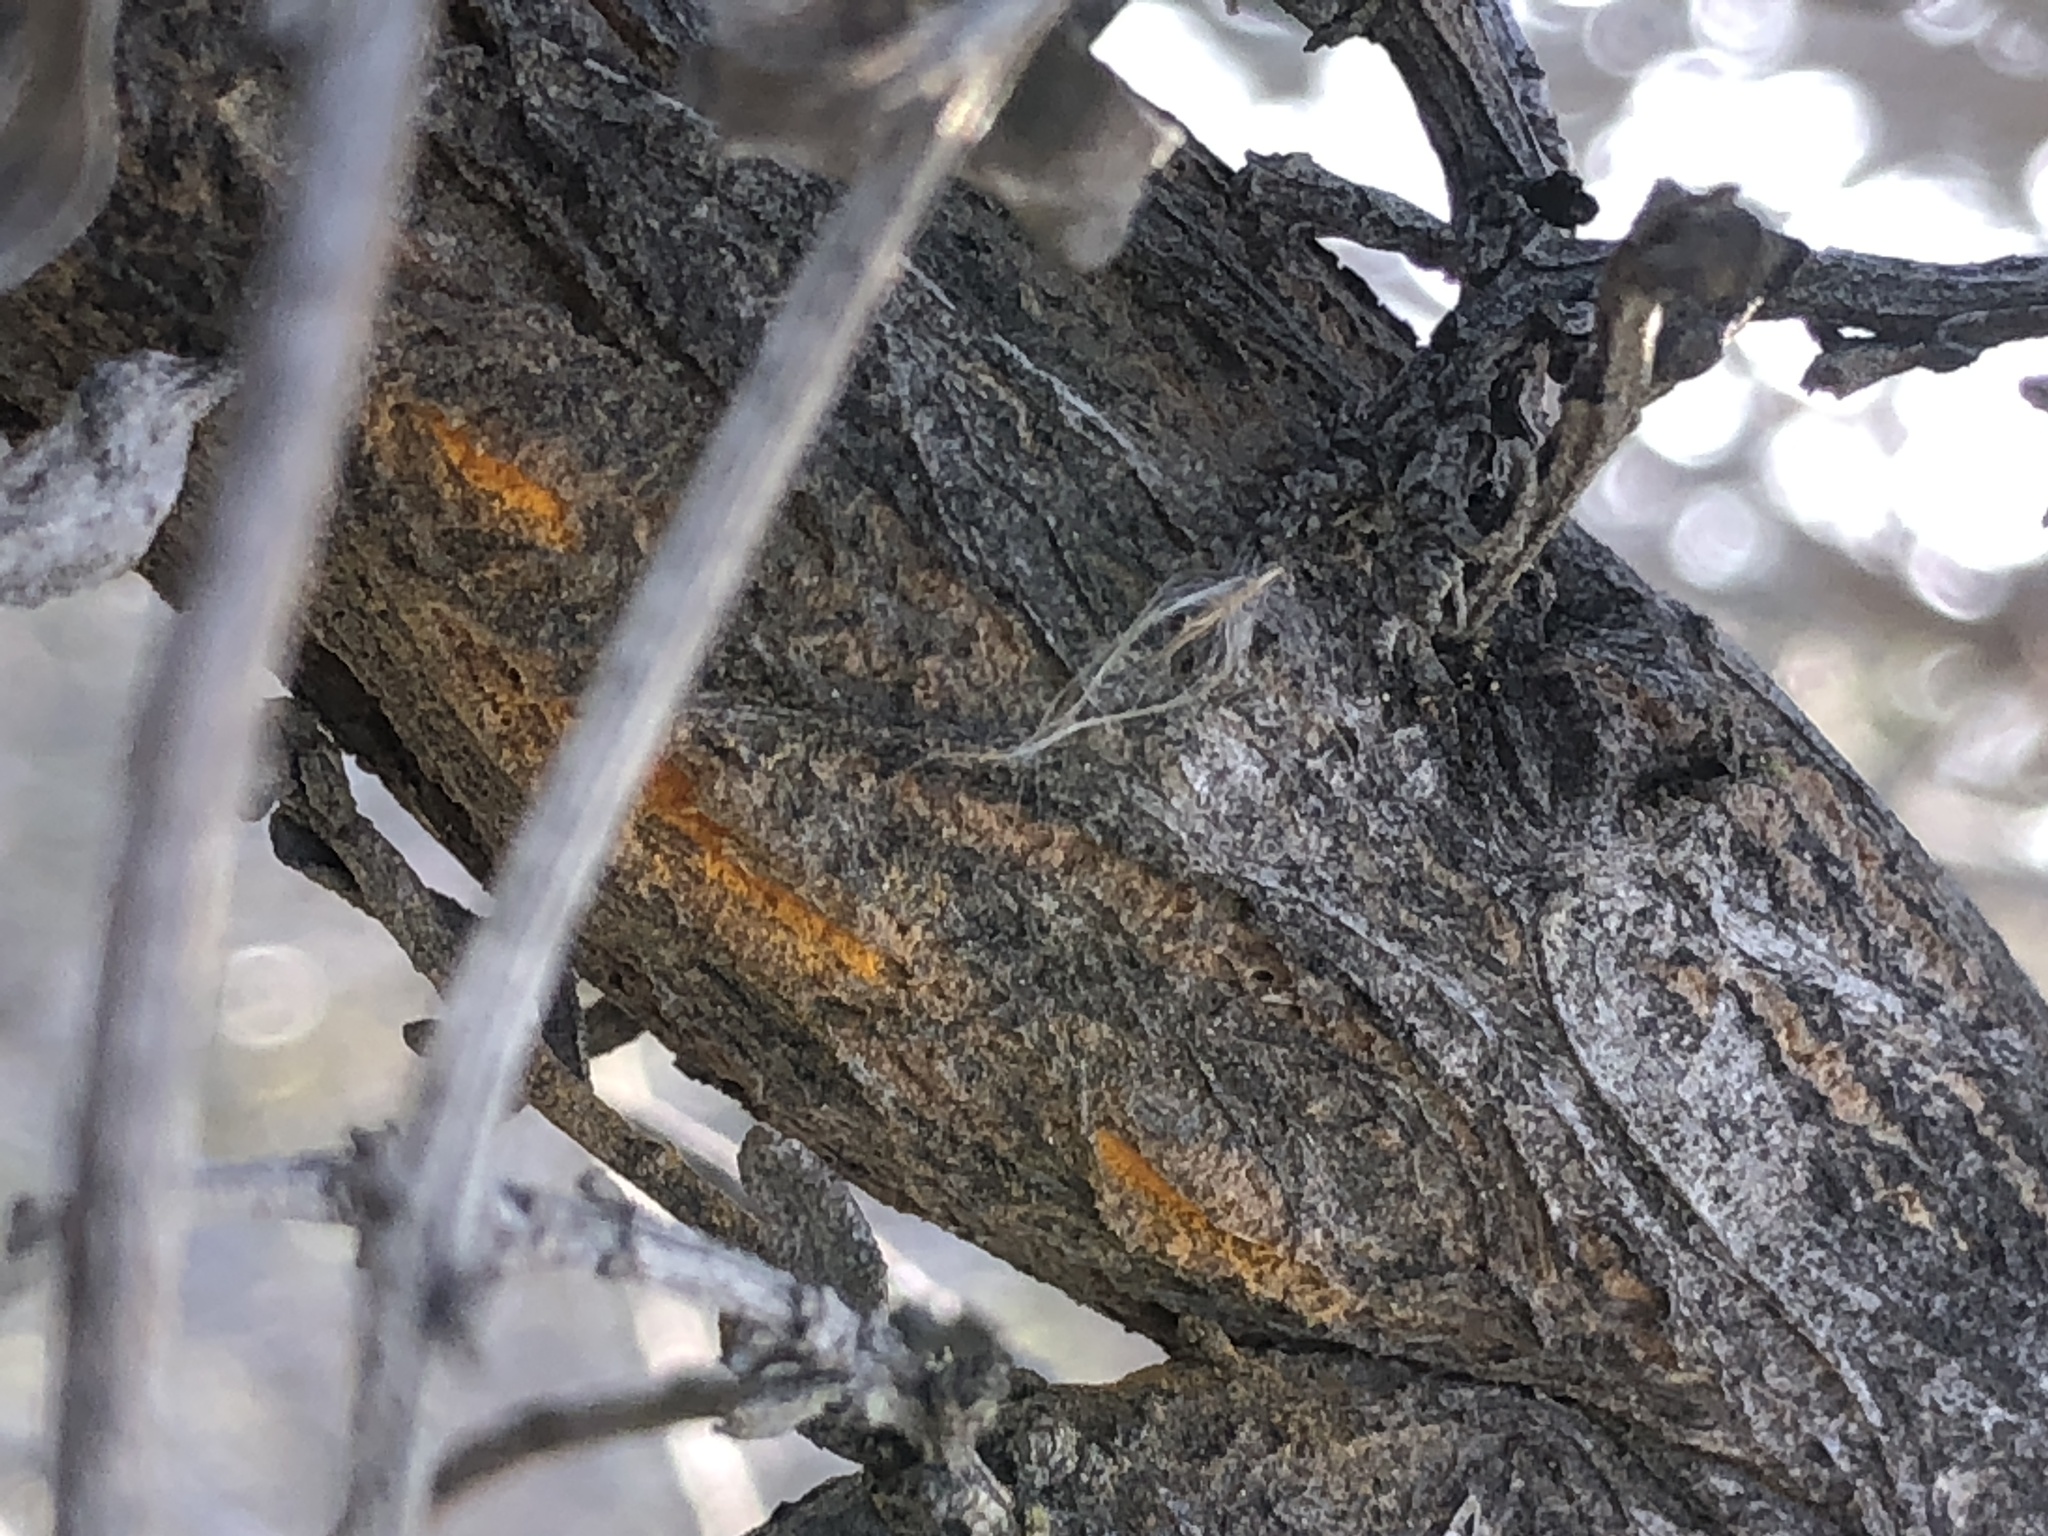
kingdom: Fungi
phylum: Basidiomycota
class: Pucciniomycetes
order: Pucciniales
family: Pucciniaceae
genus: Eriosporangium
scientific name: Eriosporangium evadens
